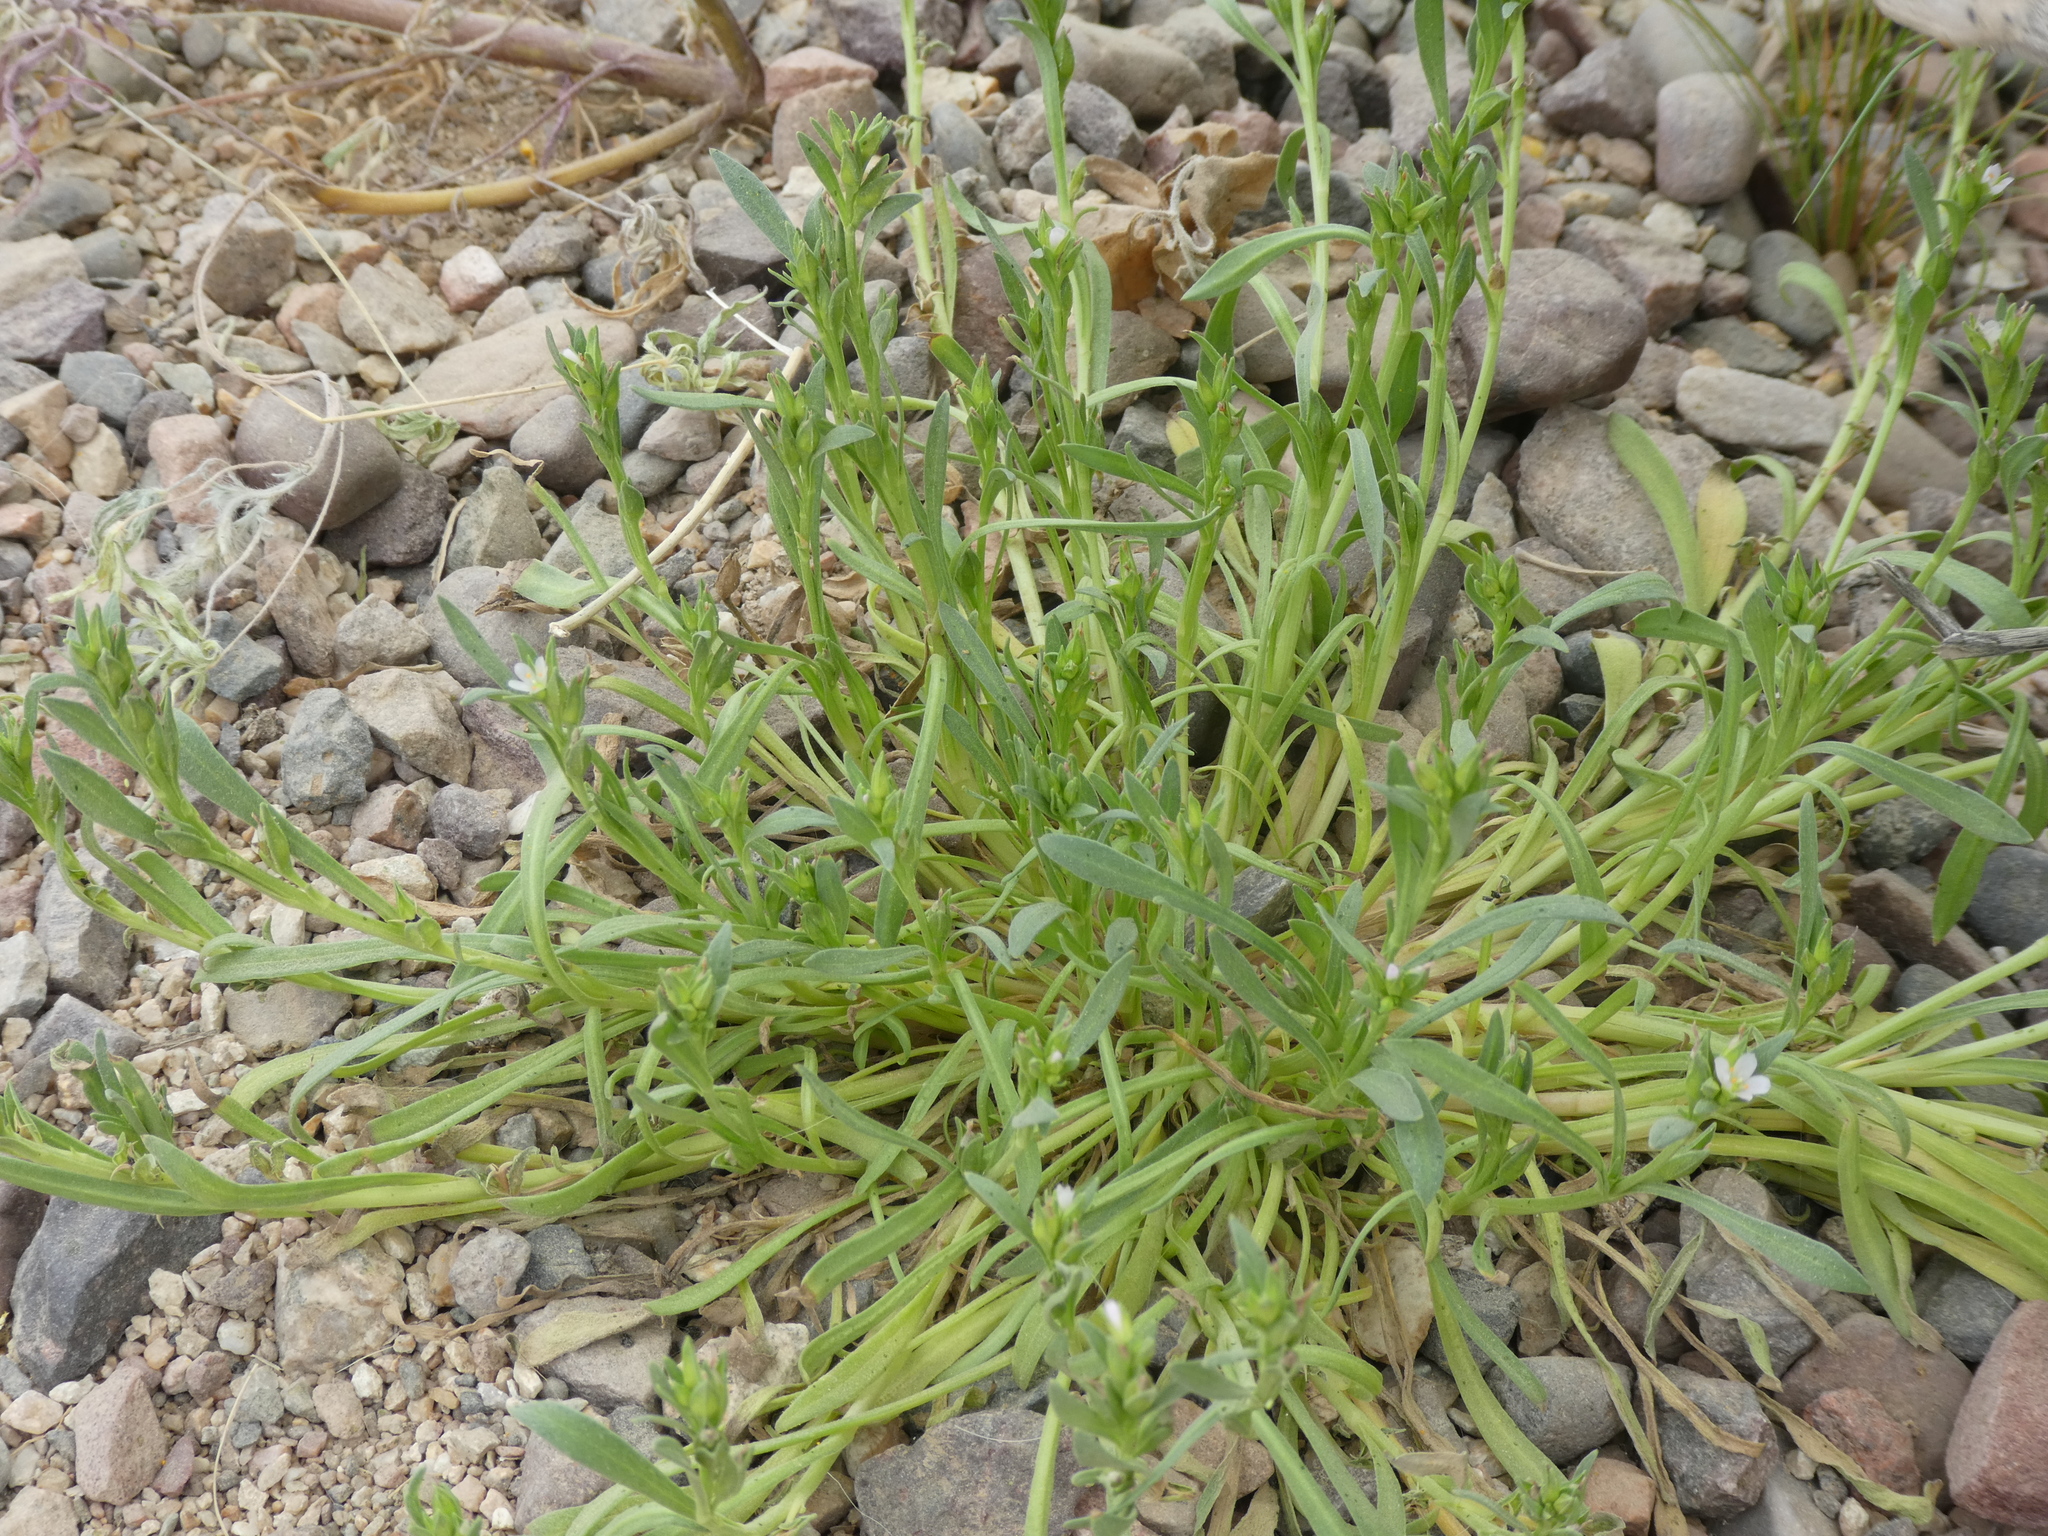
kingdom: Plantae
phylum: Tracheophyta
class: Magnoliopsida
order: Caryophyllales
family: Montiaceae
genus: Calandrinia
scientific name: Calandrinia menziesii
